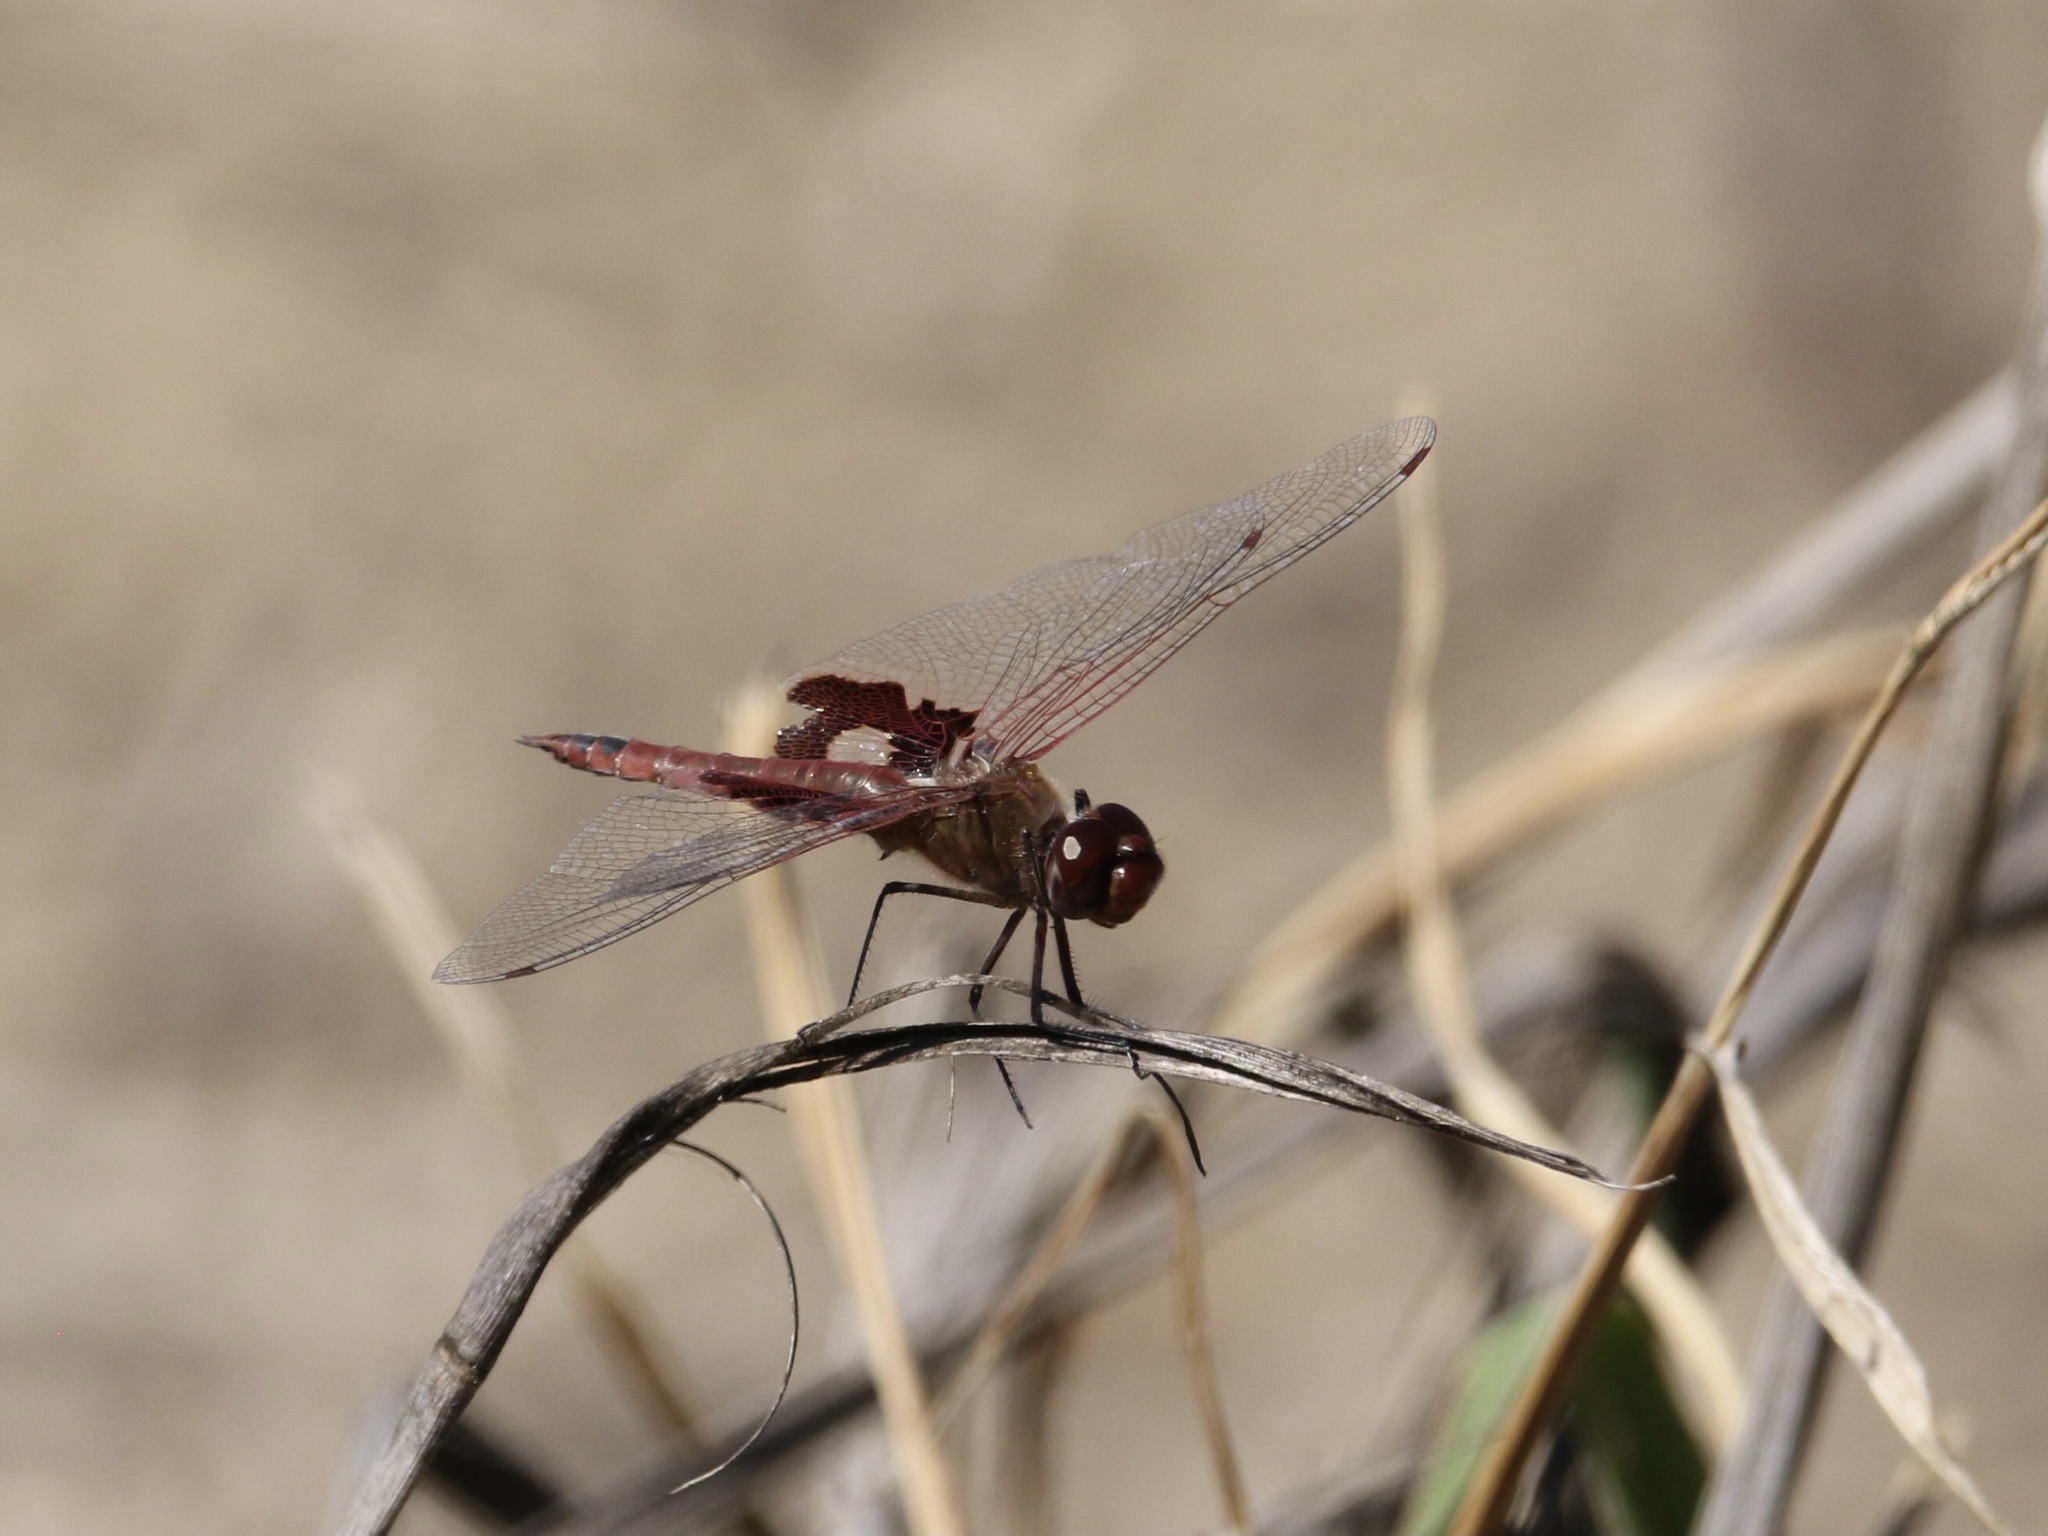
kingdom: Animalia
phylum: Arthropoda
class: Insecta
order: Odonata
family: Libellulidae
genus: Tramea
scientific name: Tramea onusta
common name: Red saddlebags
